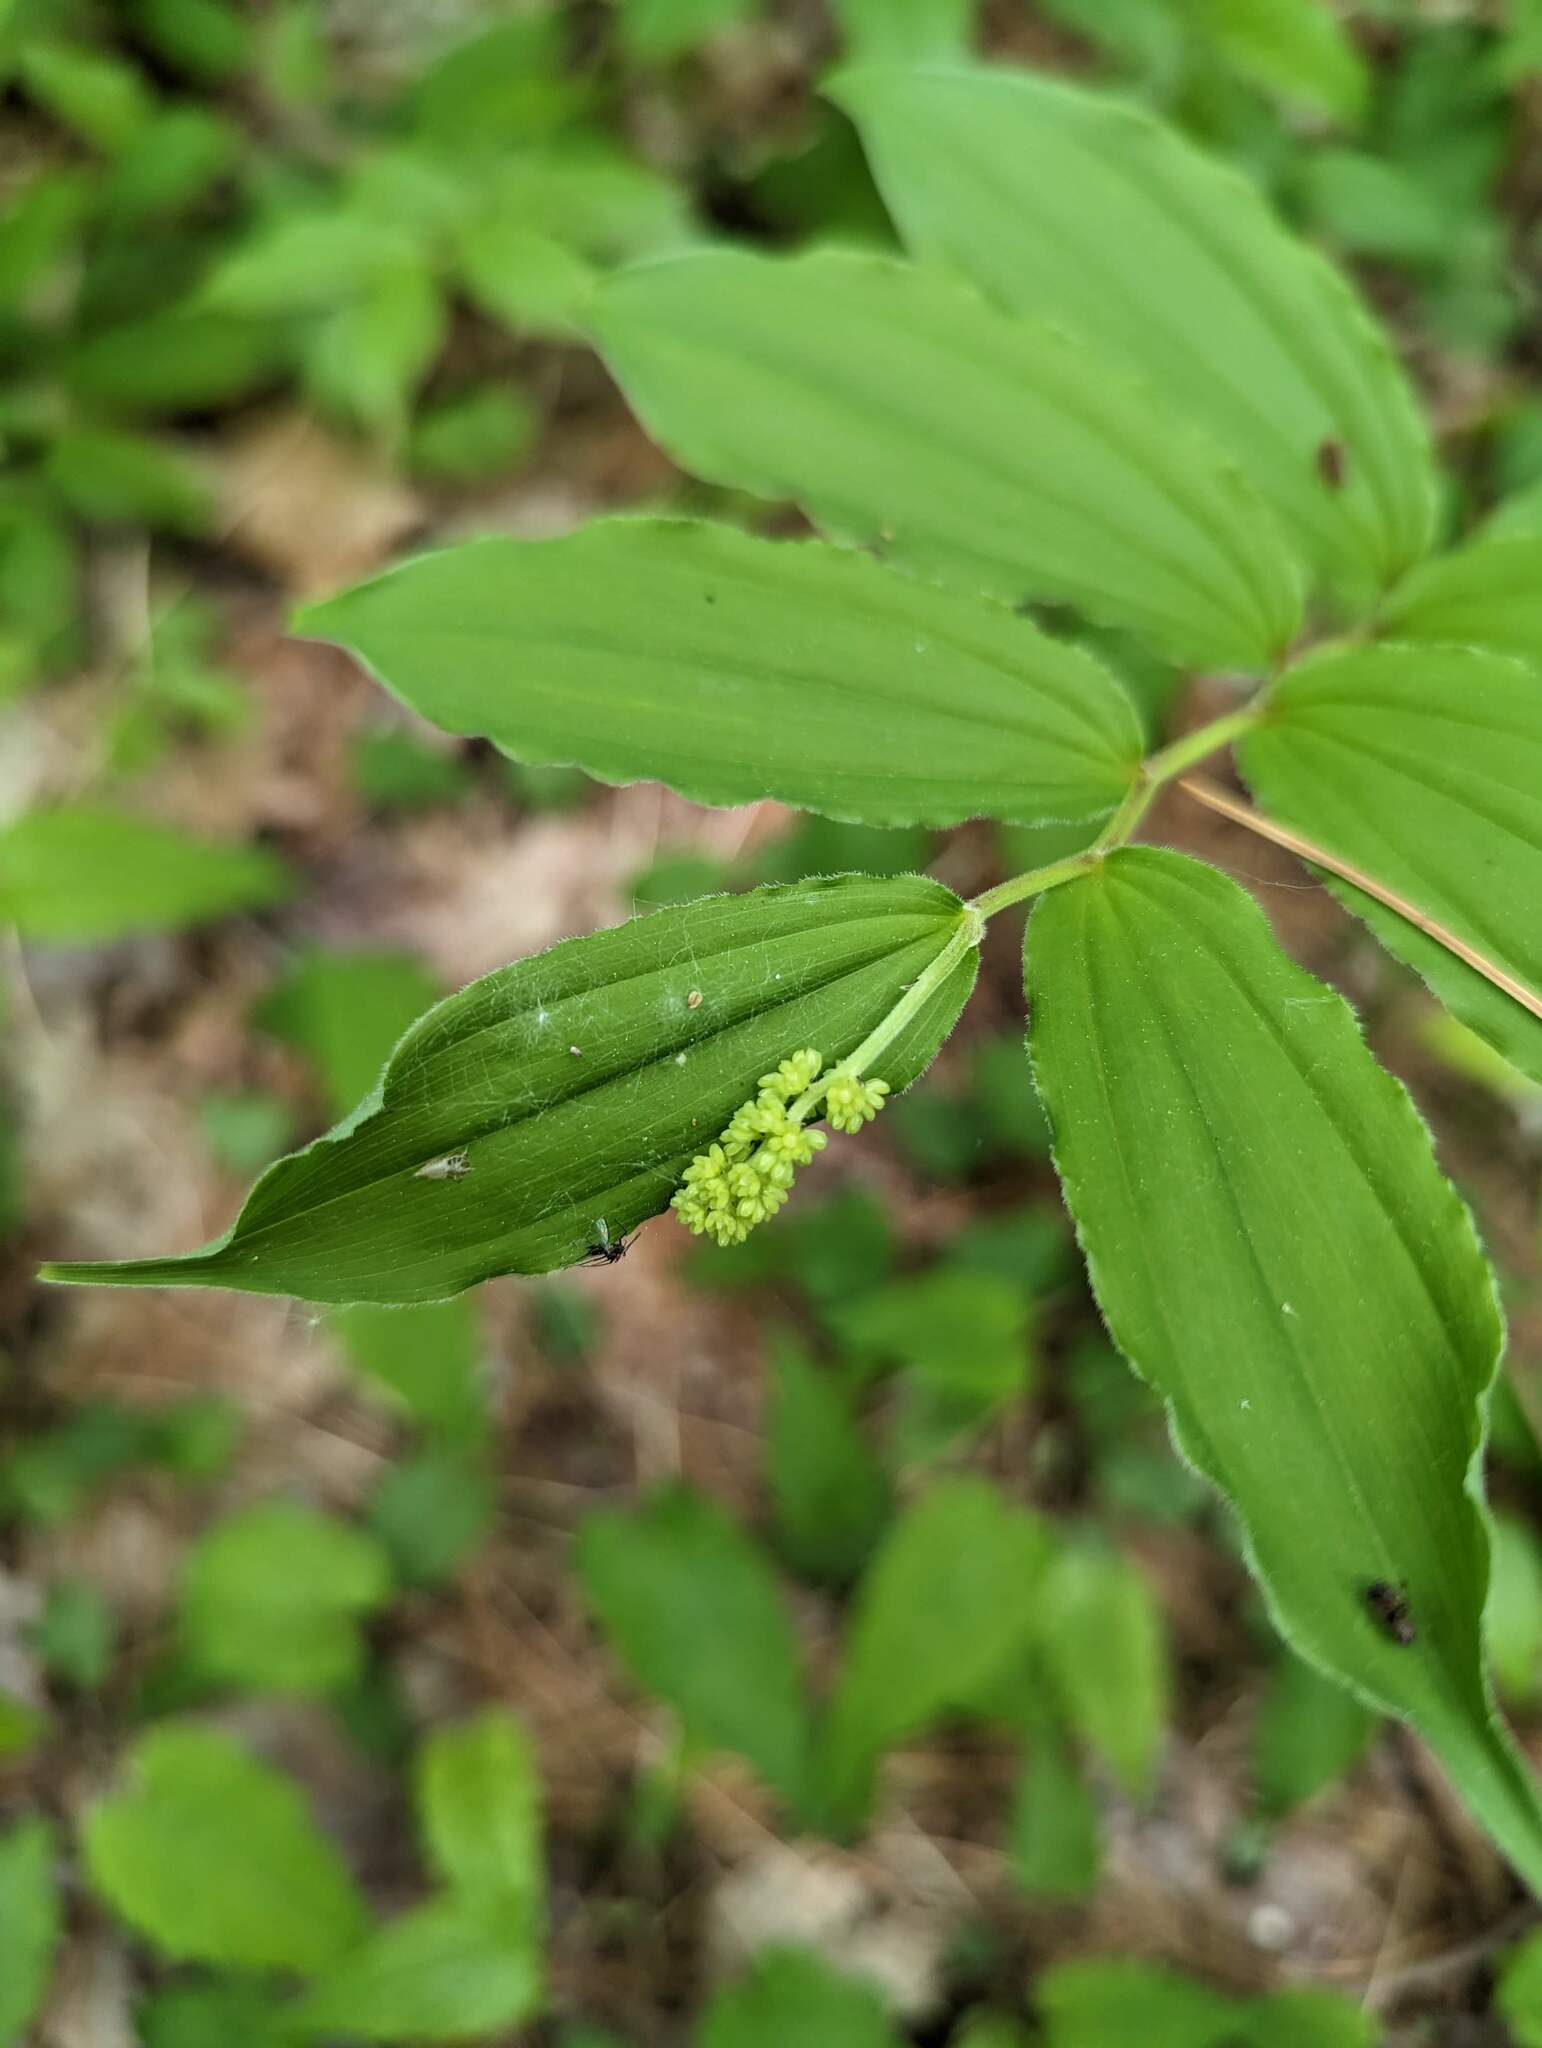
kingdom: Plantae
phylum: Tracheophyta
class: Liliopsida
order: Asparagales
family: Asparagaceae
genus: Maianthemum
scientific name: Maianthemum racemosum
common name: False spikenard
